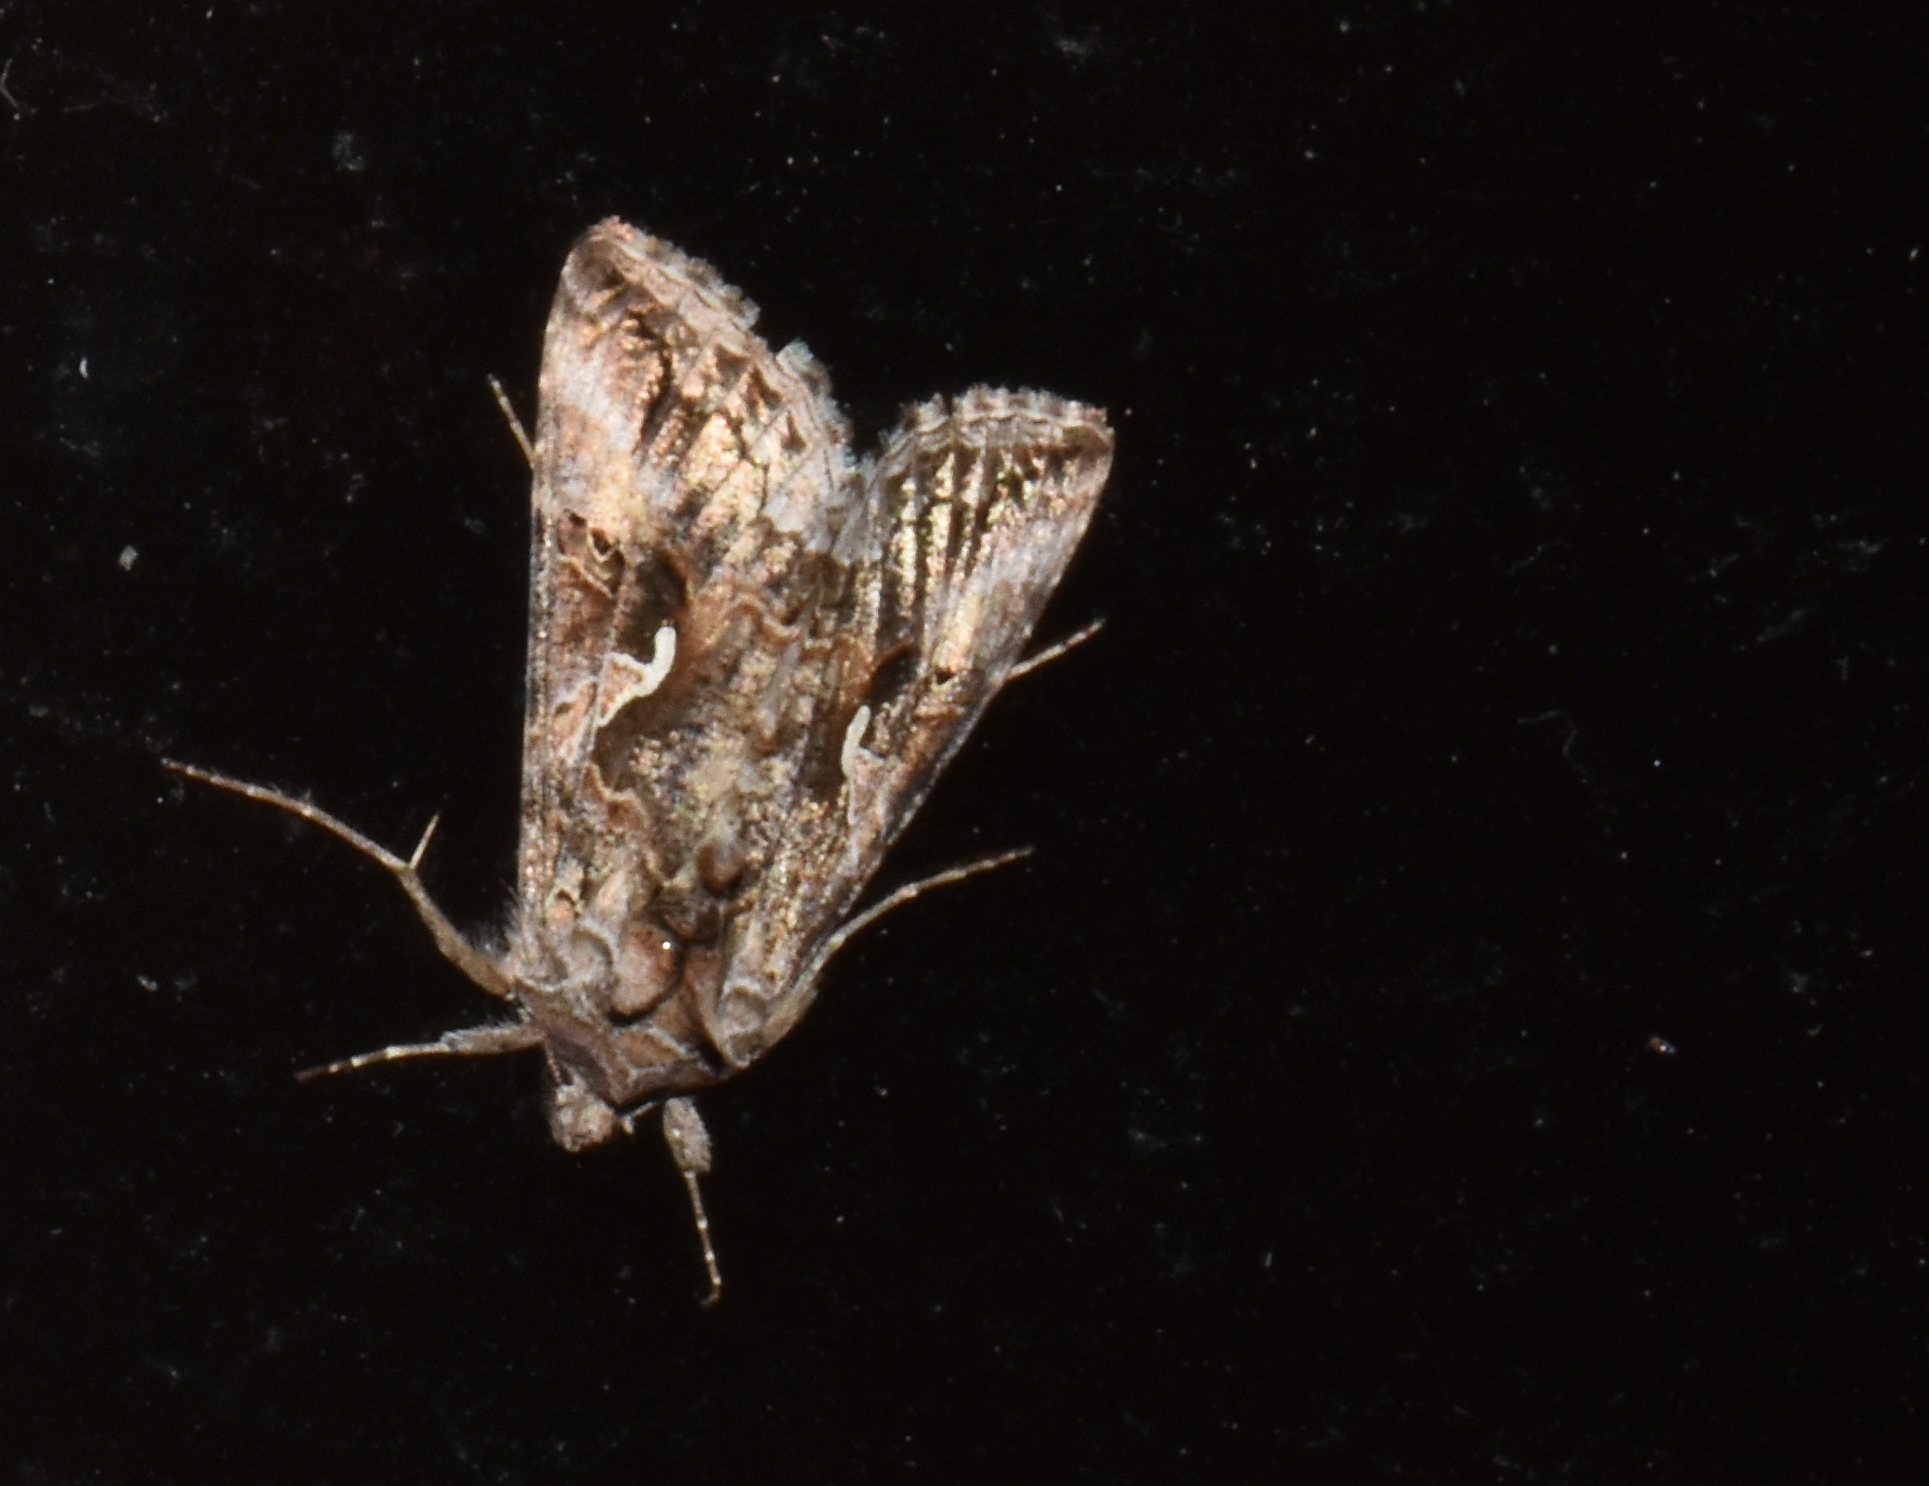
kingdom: Animalia
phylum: Arthropoda
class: Insecta
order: Lepidoptera
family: Noctuidae
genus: Autographa
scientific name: Autographa californica
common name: Alfalfa looper
